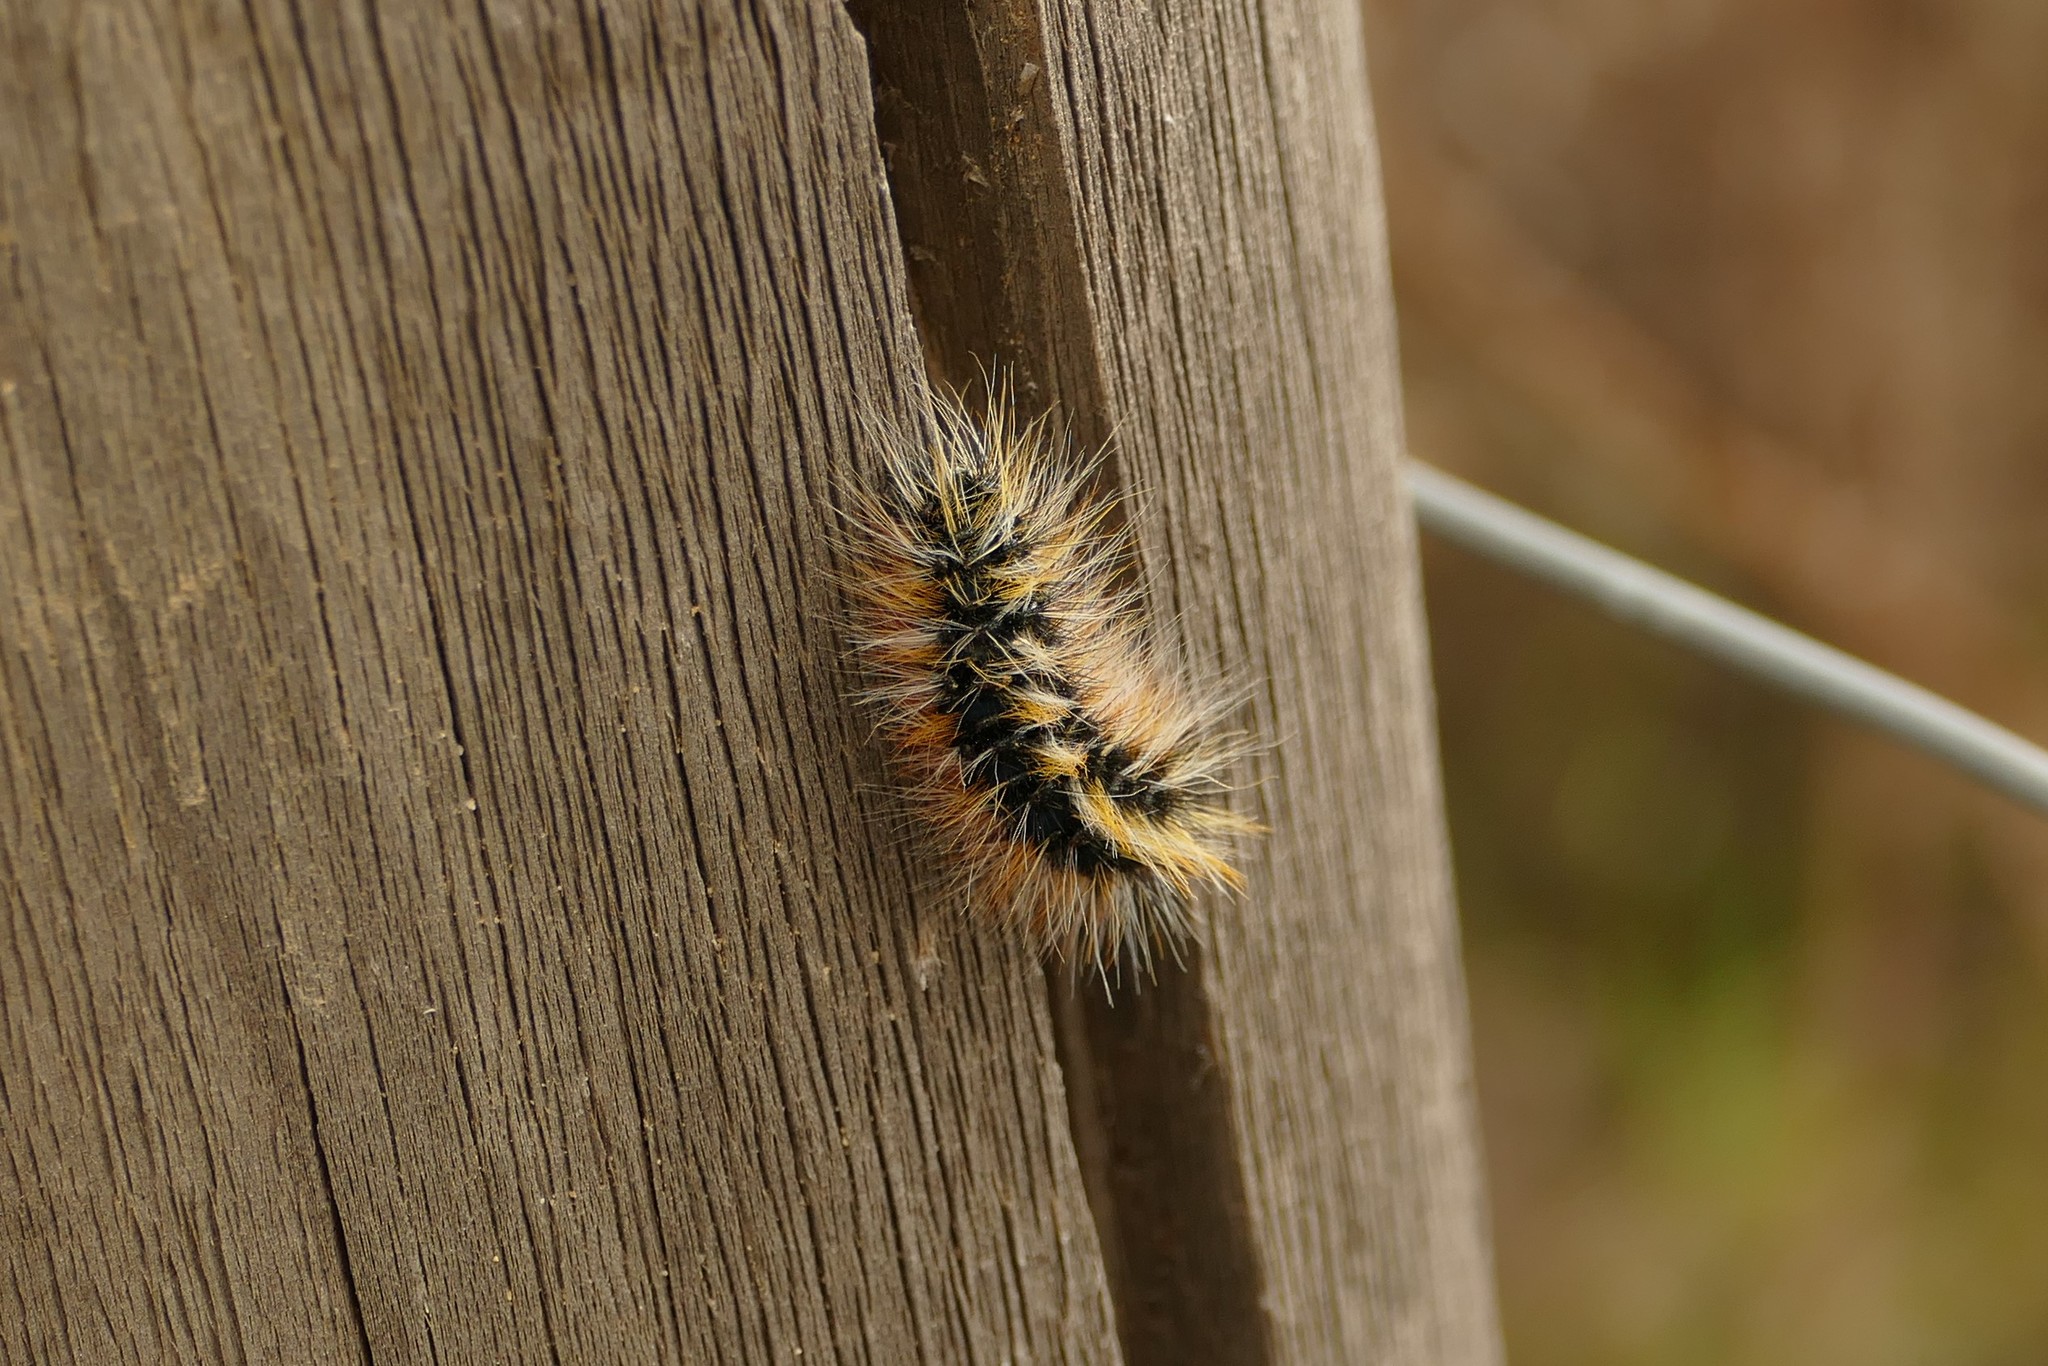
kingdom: Animalia
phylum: Arthropoda
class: Insecta
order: Lepidoptera
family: Lasiocampidae
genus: Chondrostega
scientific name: Chondrostega vandalicia
